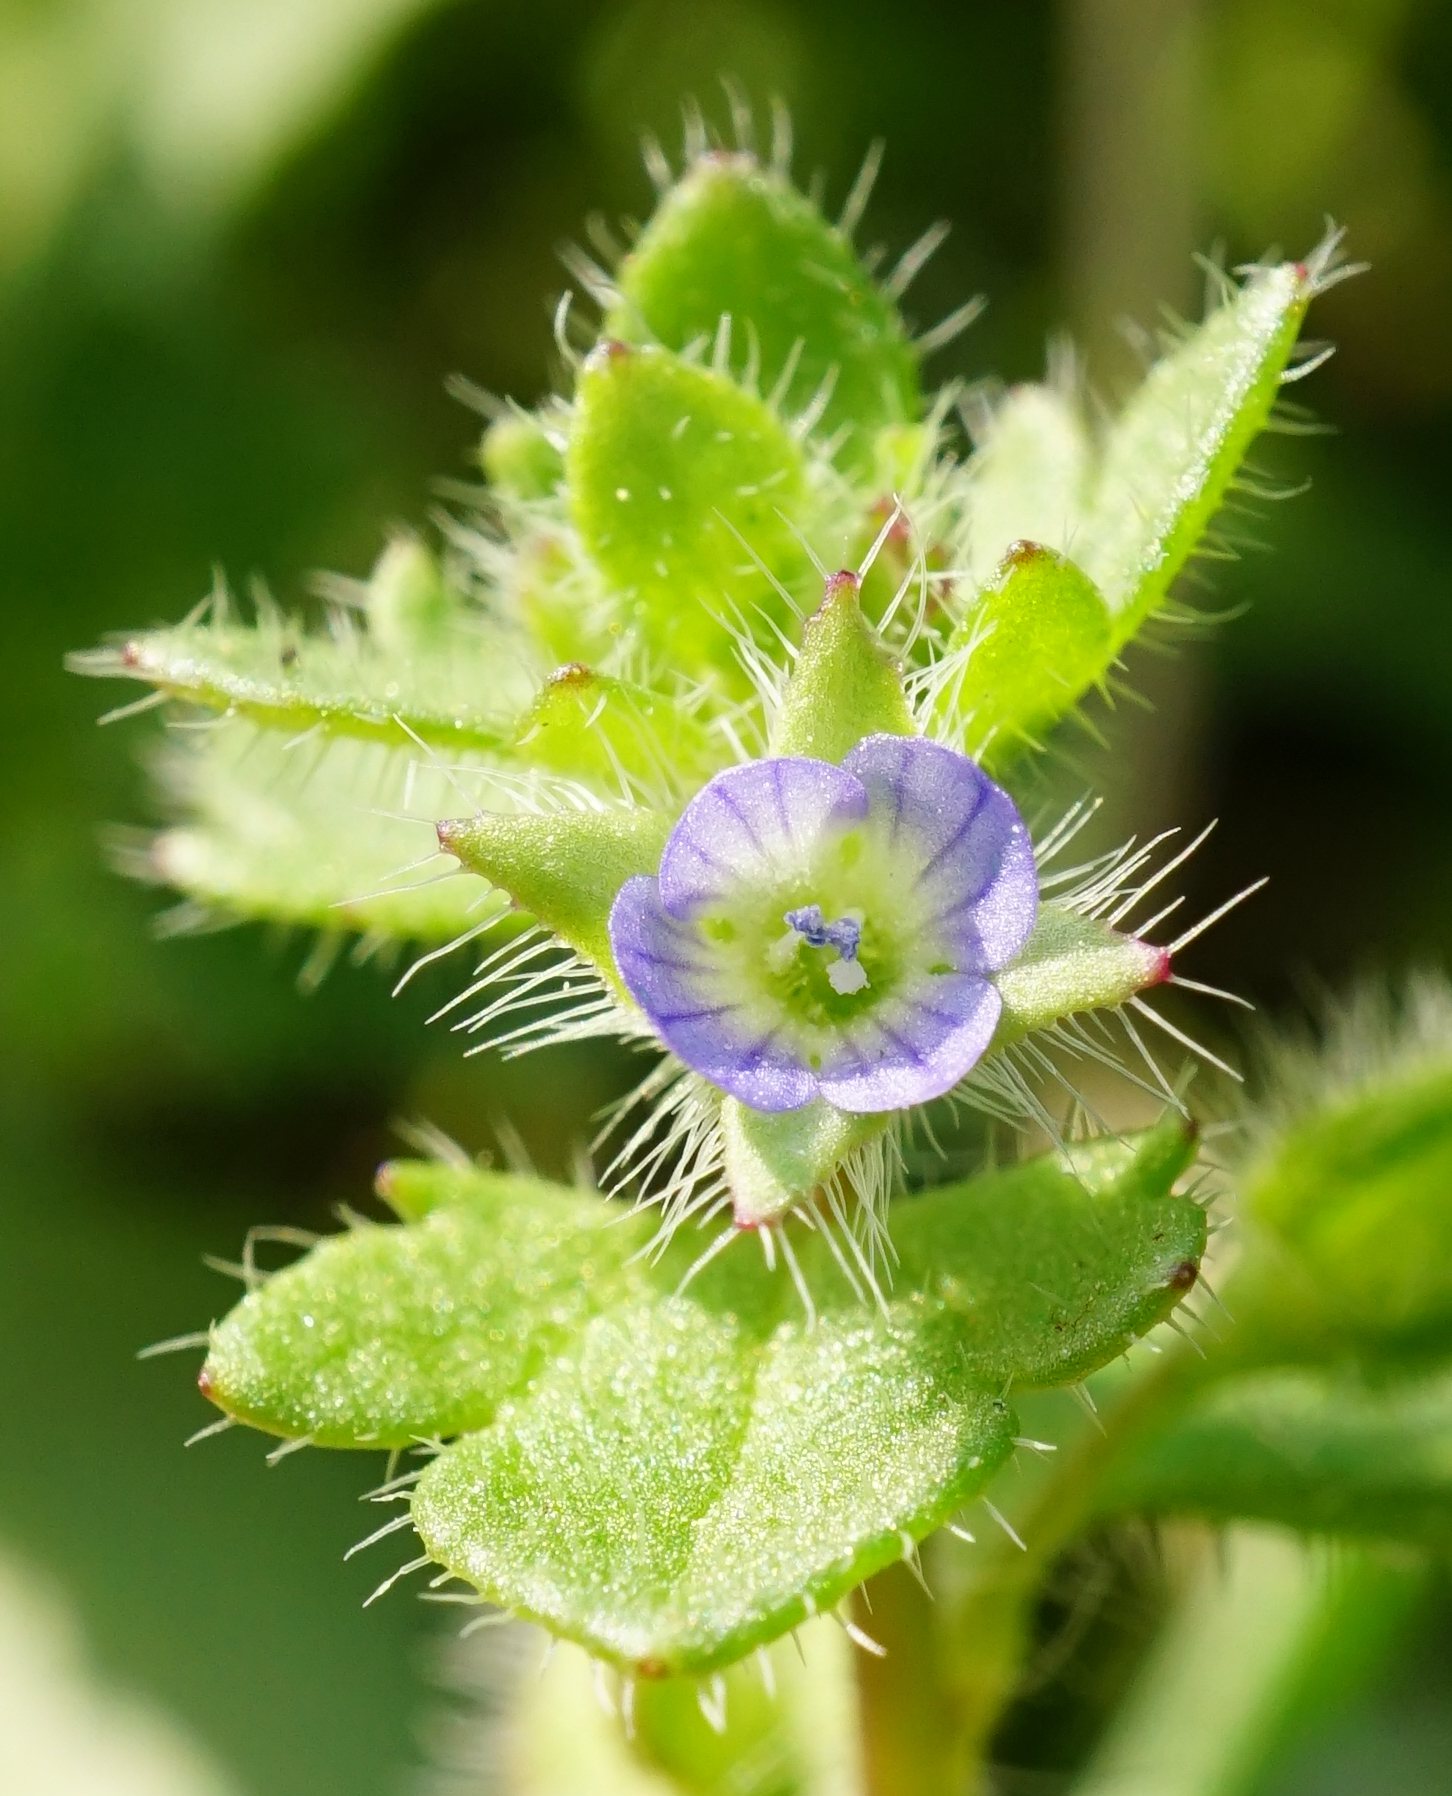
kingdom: Plantae
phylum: Tracheophyta
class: Magnoliopsida
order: Lamiales
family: Plantaginaceae
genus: Veronica
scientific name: Veronica hederifolia
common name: Ivy-leaved speedwell
